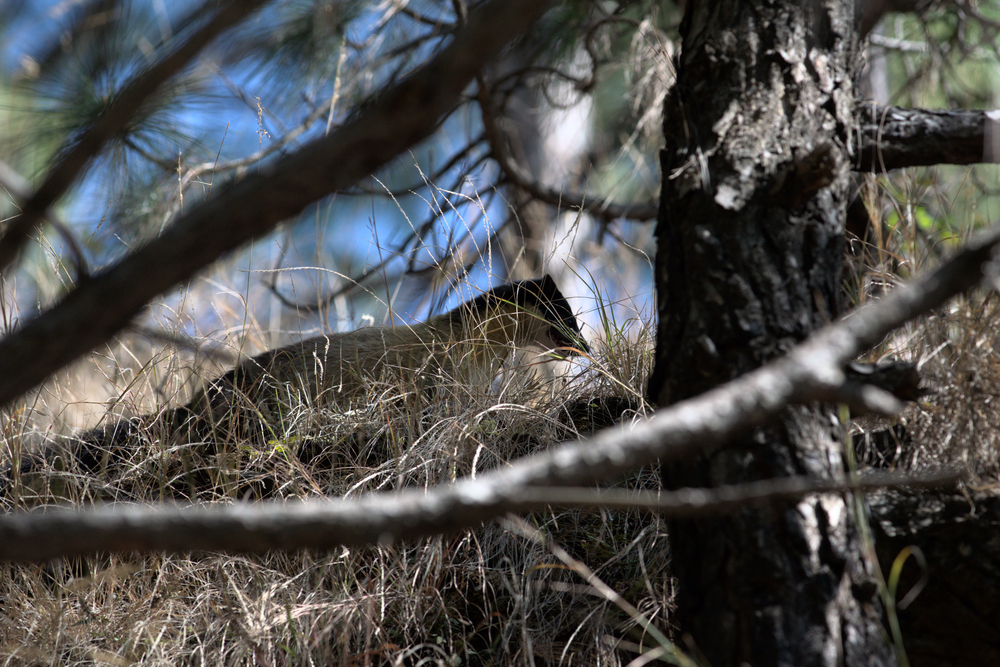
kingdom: Animalia
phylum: Chordata
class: Mammalia
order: Carnivora
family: Mustelidae
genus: Martes
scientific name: Martes flavigula
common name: Yellow-throated marten
